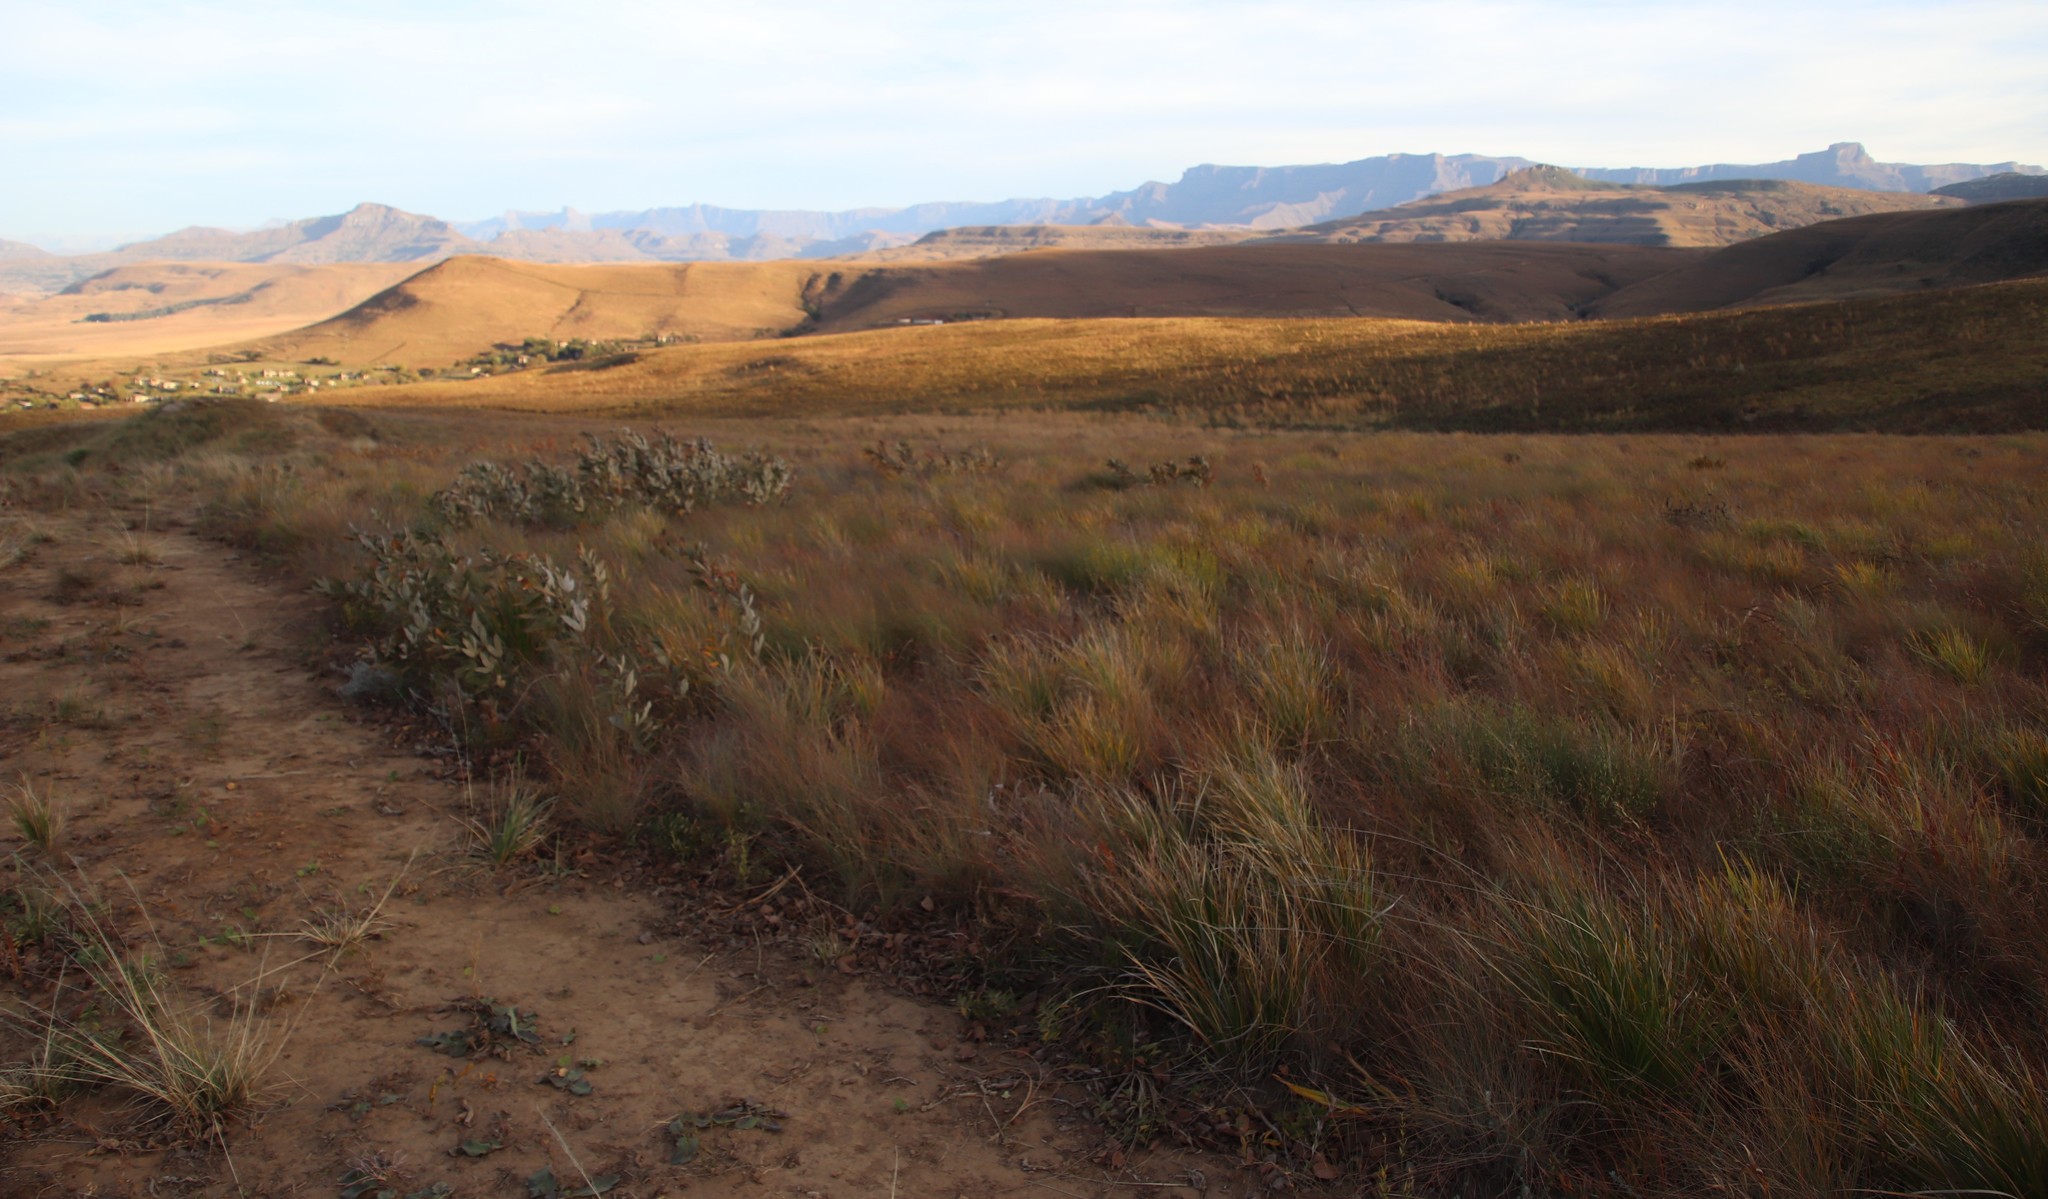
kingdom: Plantae
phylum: Tracheophyta
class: Magnoliopsida
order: Sapindales
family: Anacardiaceae
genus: Searsia
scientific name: Searsia discolor
